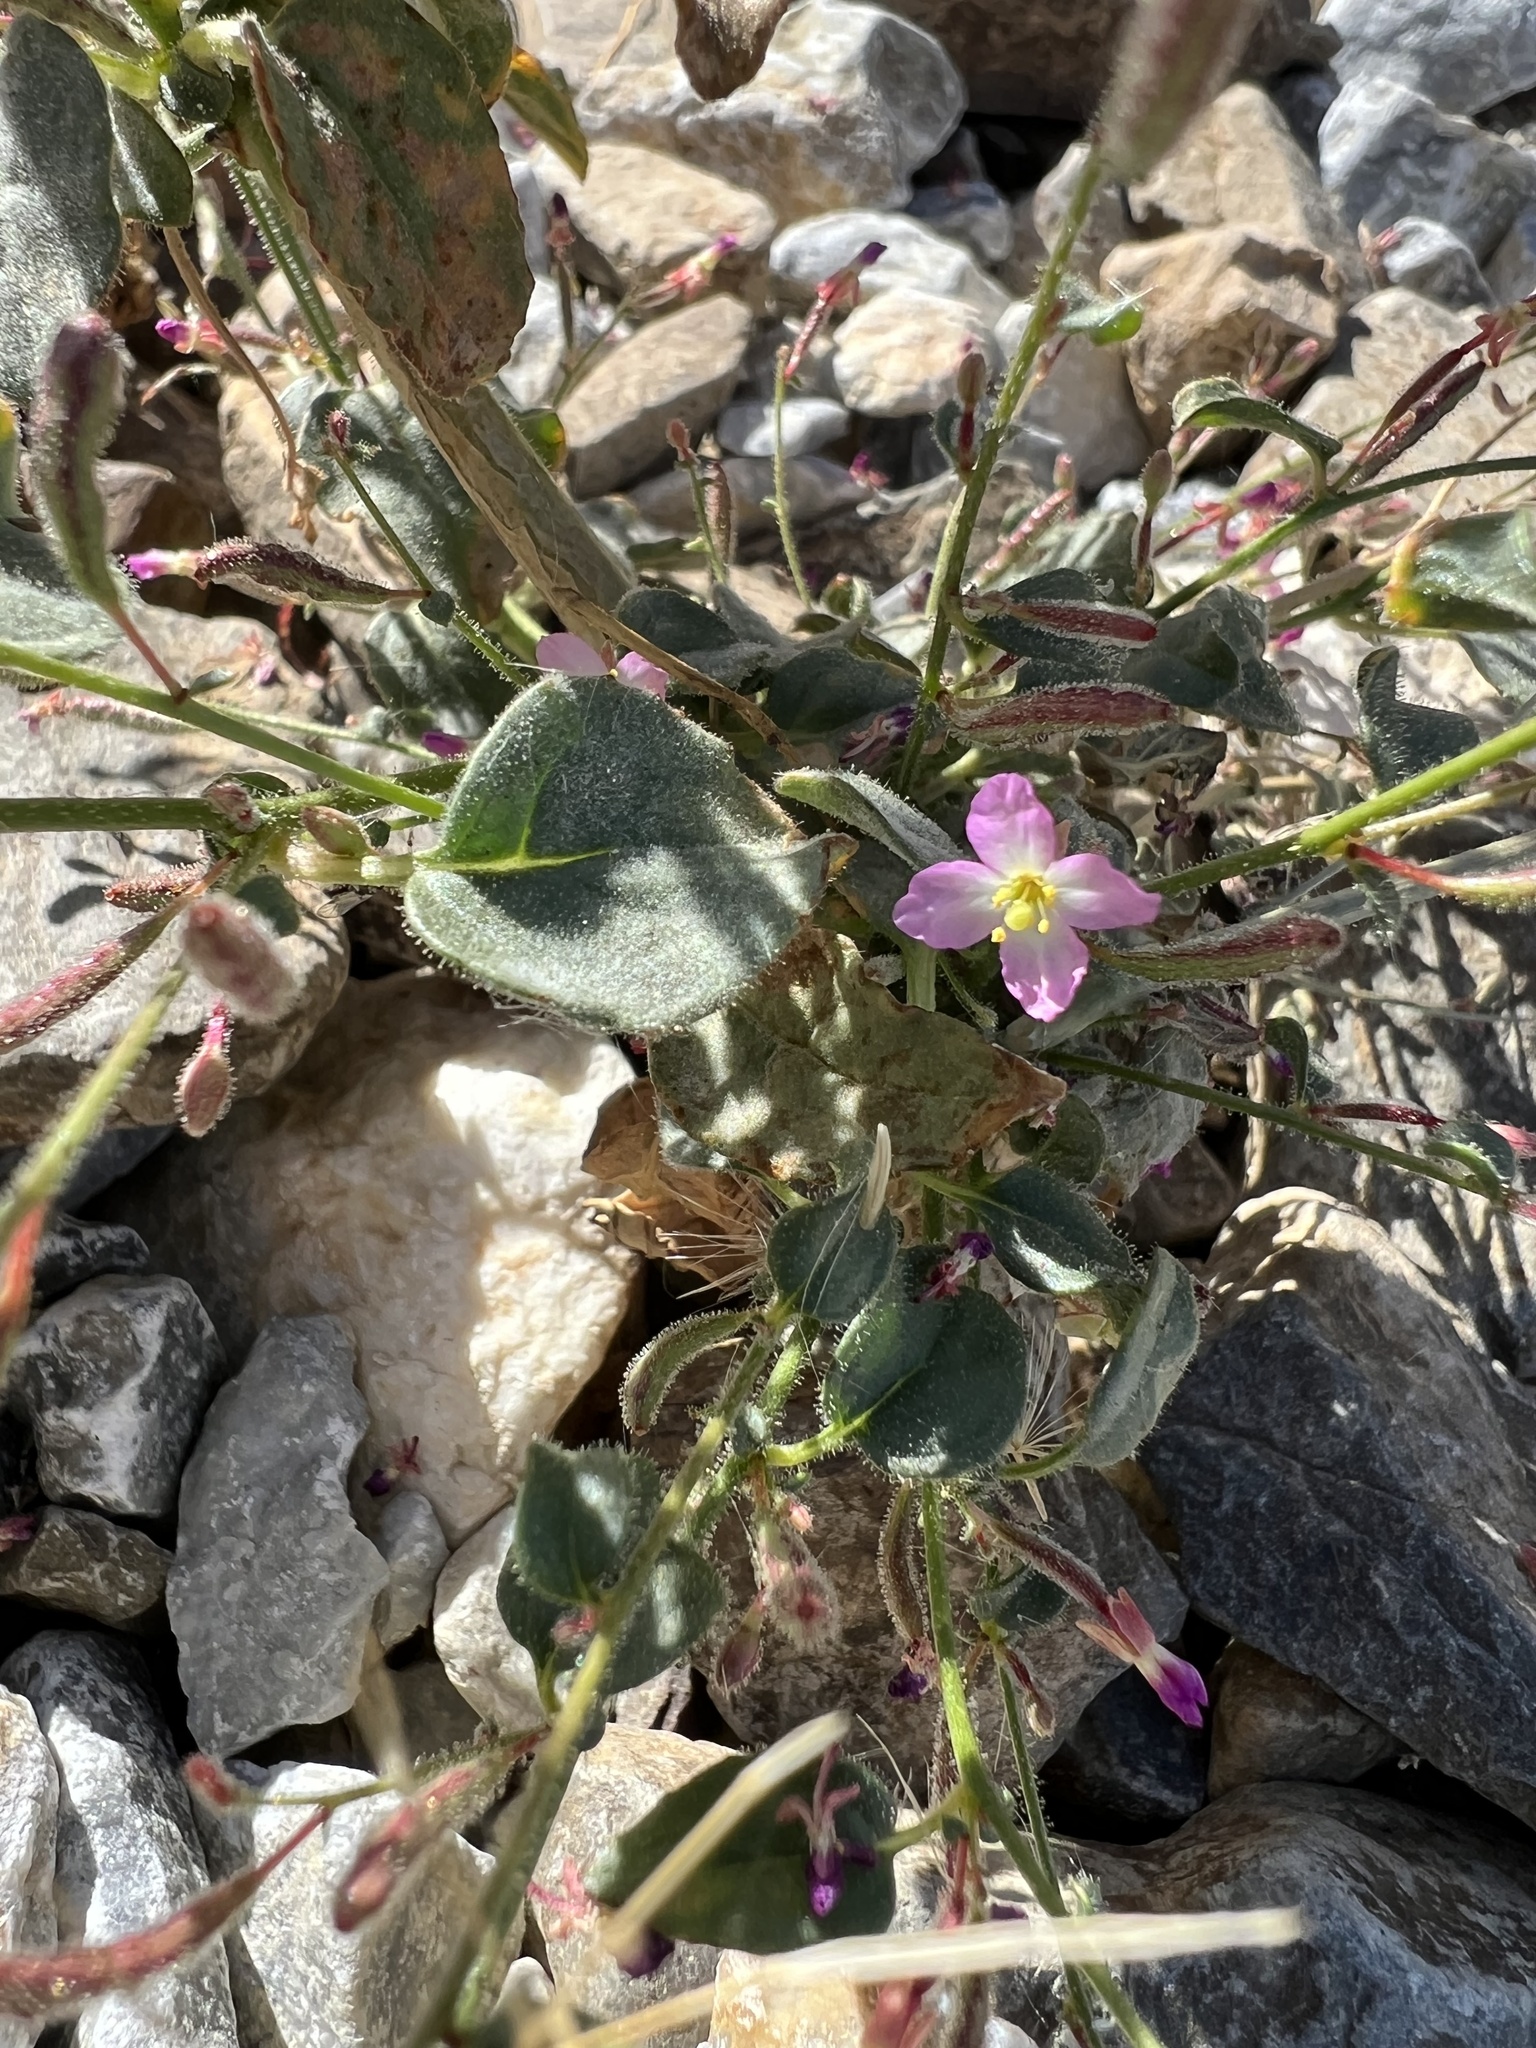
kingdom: Plantae
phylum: Tracheophyta
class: Magnoliopsida
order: Myrtales
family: Onagraceae
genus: Chylismia
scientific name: Chylismia heterochroma
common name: Shockley's evening primrose
